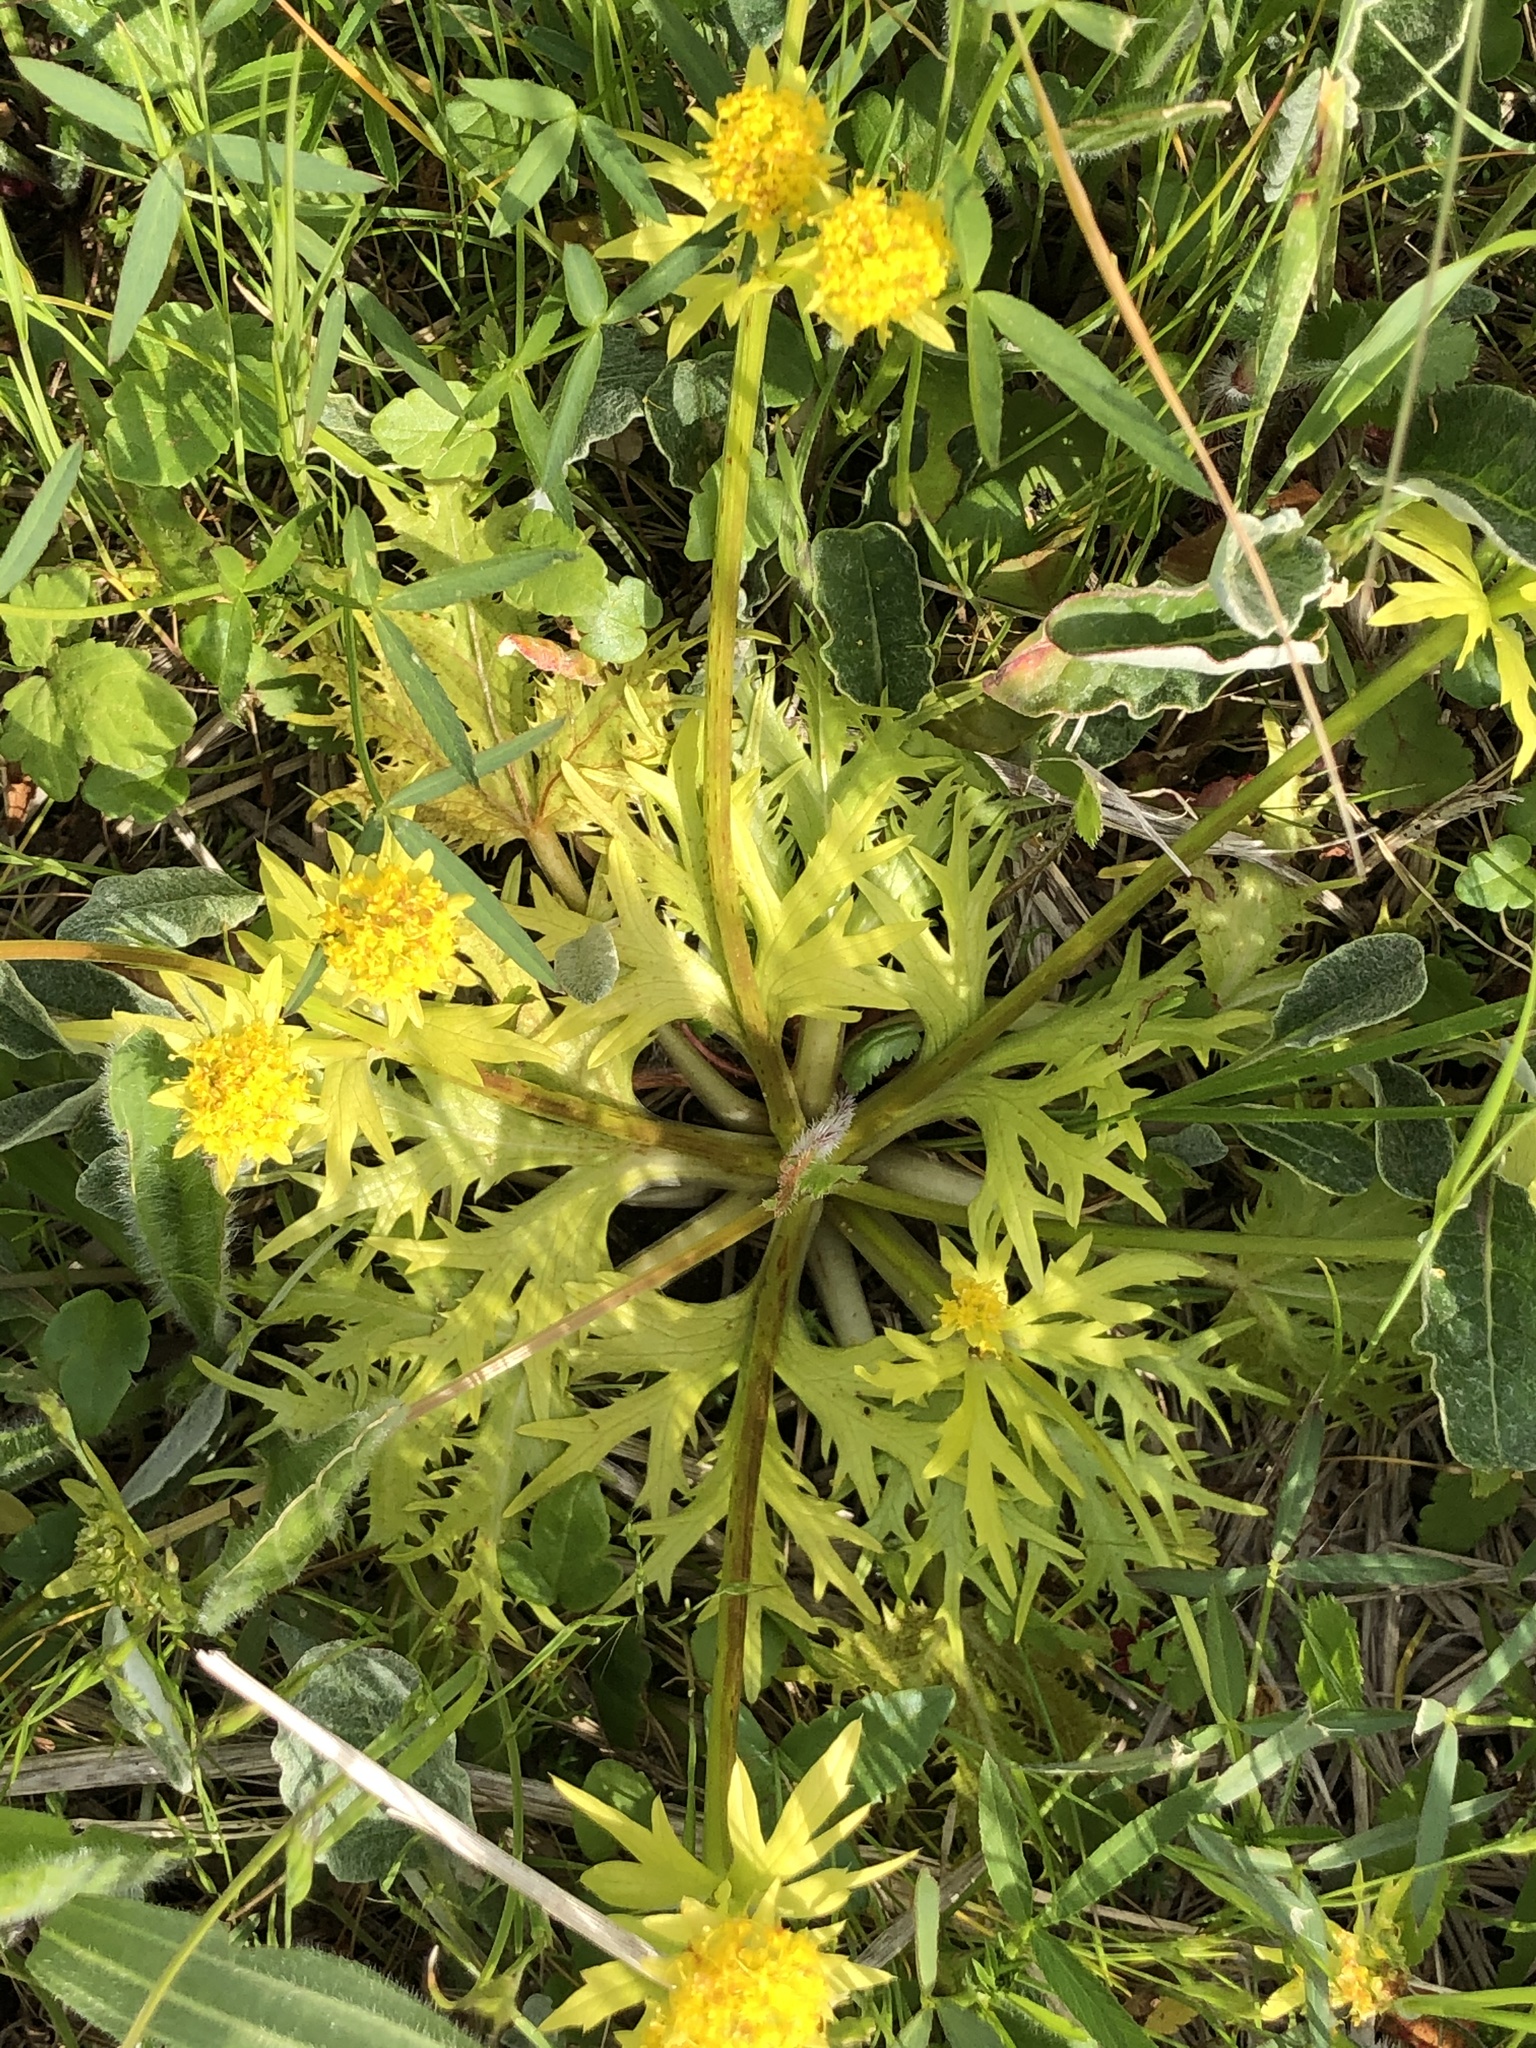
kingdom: Plantae
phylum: Tracheophyta
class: Magnoliopsida
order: Apiales
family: Apiaceae
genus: Sanicula
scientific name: Sanicula arctopoides
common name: Footsteps-of-spring
